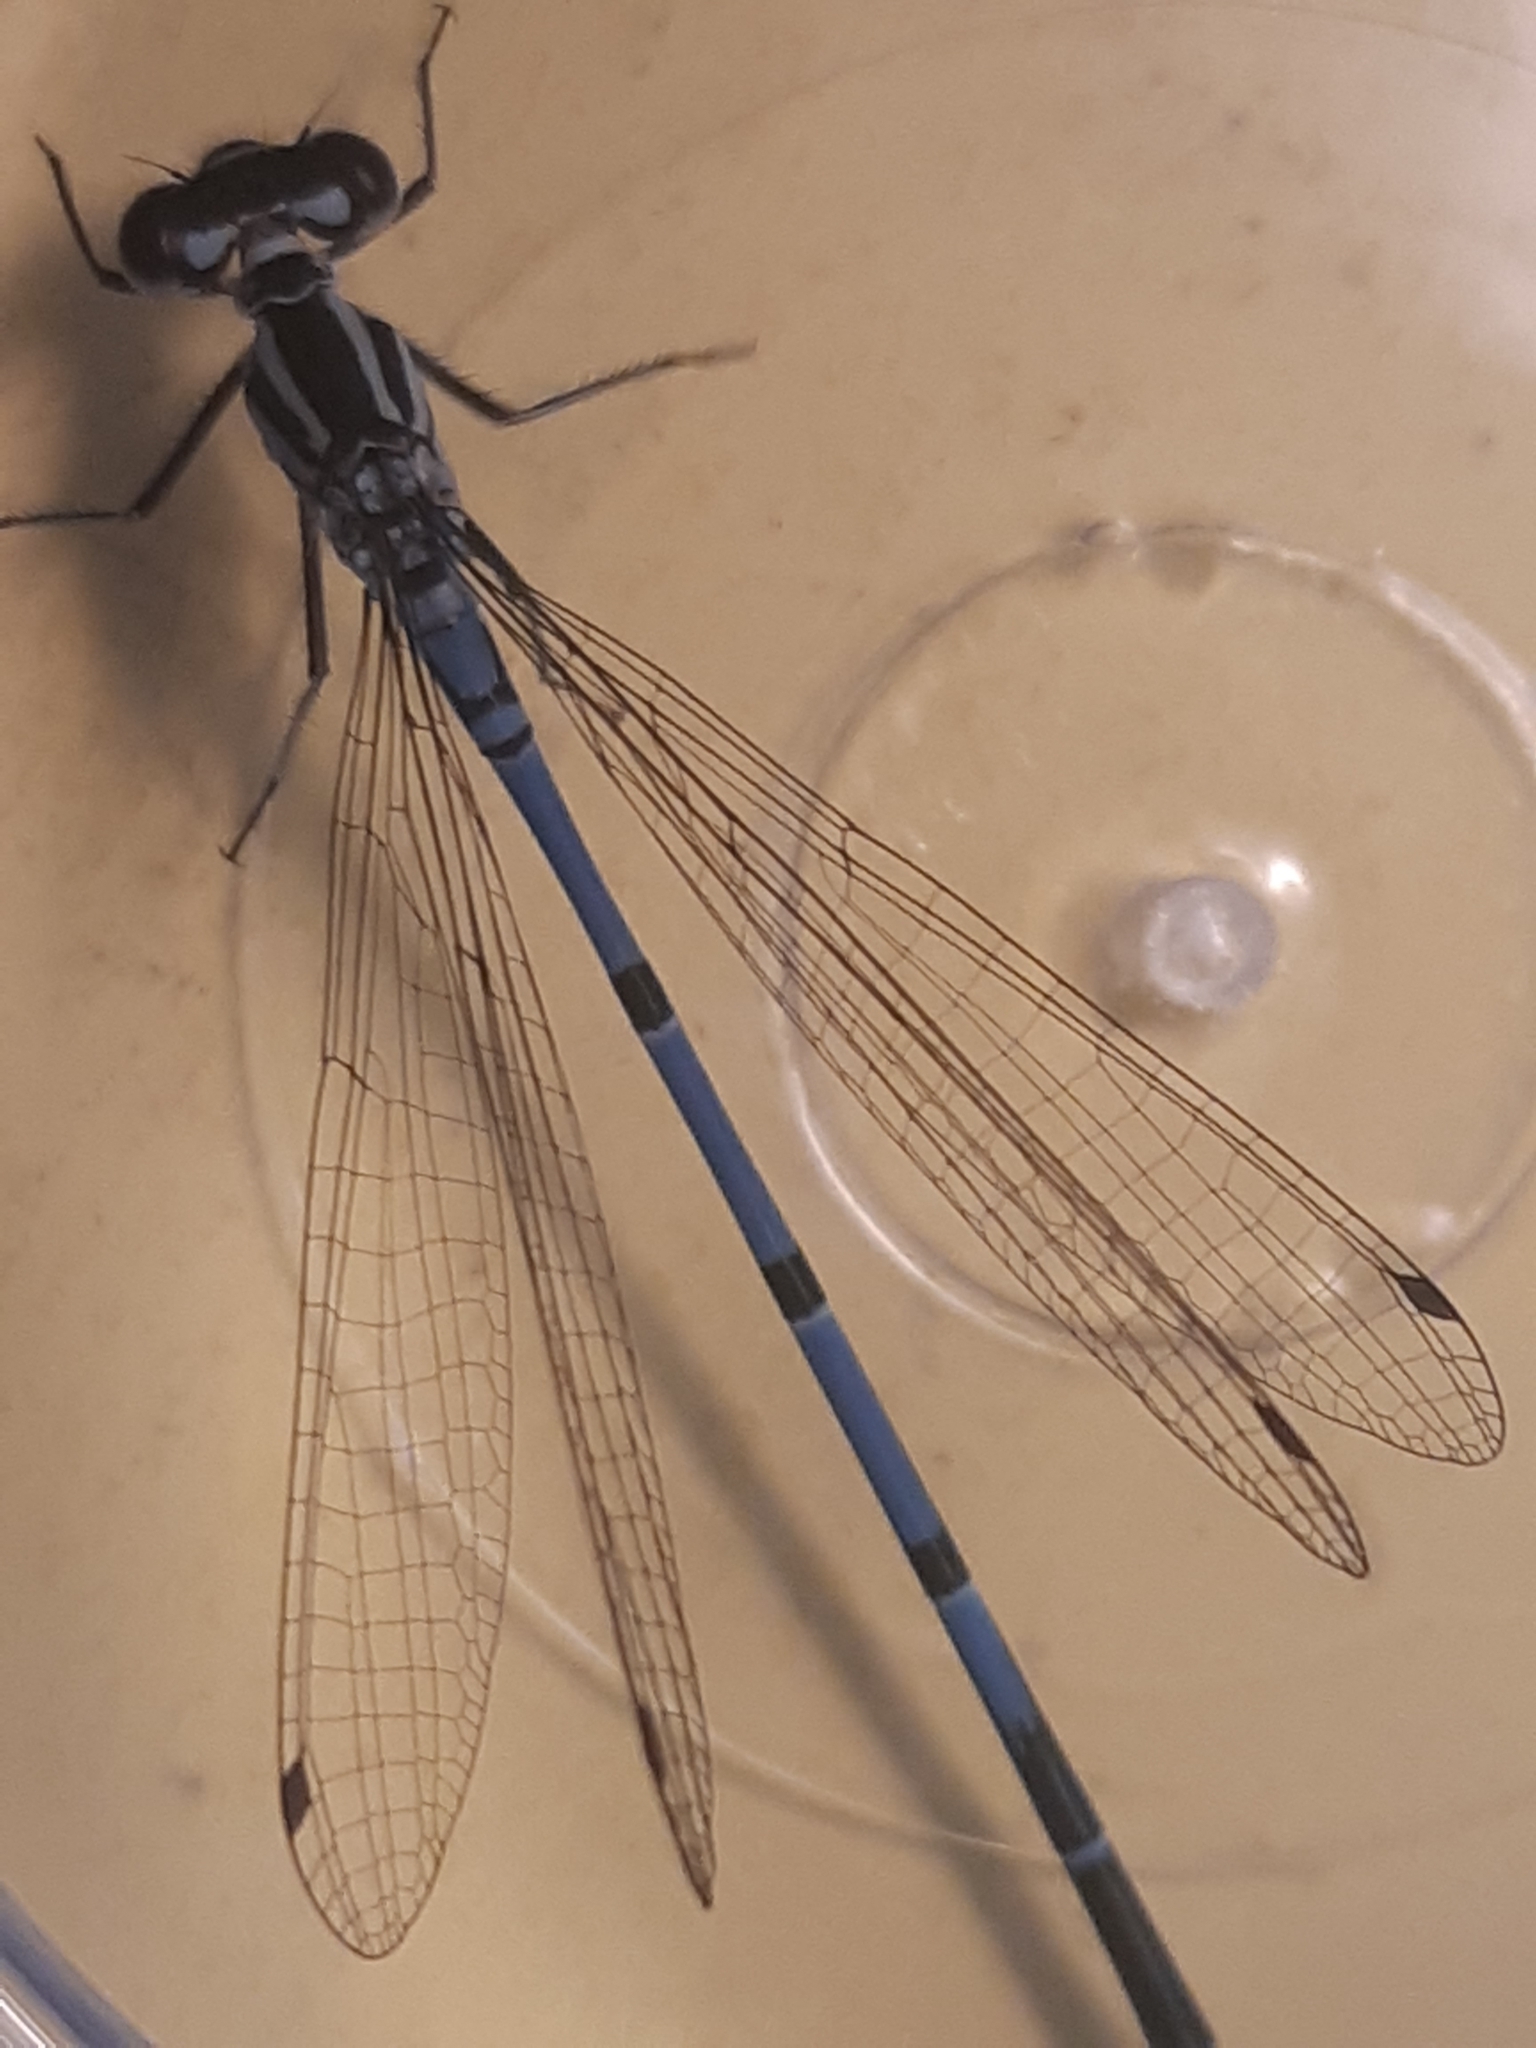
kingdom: Animalia
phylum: Arthropoda
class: Insecta
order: Odonata
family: Coenagrionidae
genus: Coenagrion
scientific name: Coenagrion puella
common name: Azure damselfly
